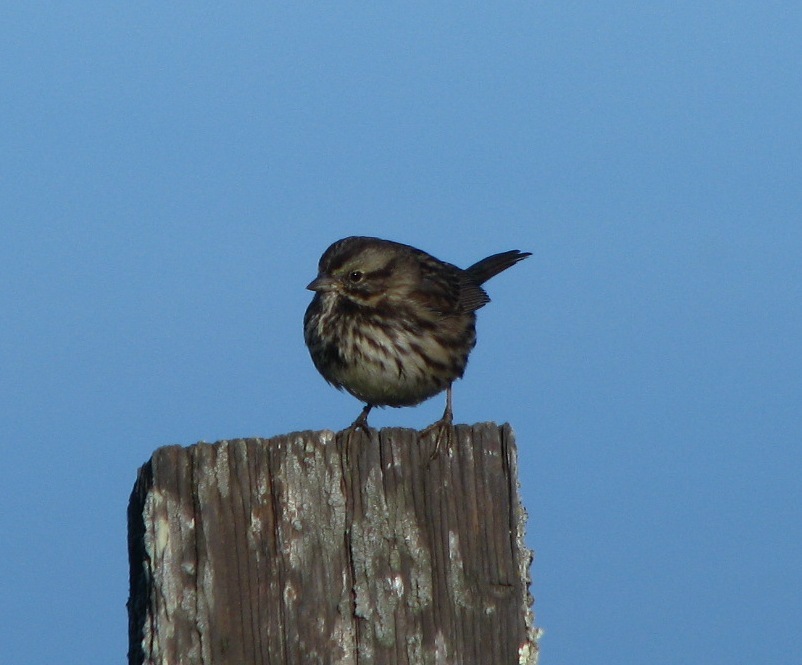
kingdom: Animalia
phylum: Chordata
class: Aves
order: Passeriformes
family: Passerellidae
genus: Melospiza
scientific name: Melospiza melodia
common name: Song sparrow
